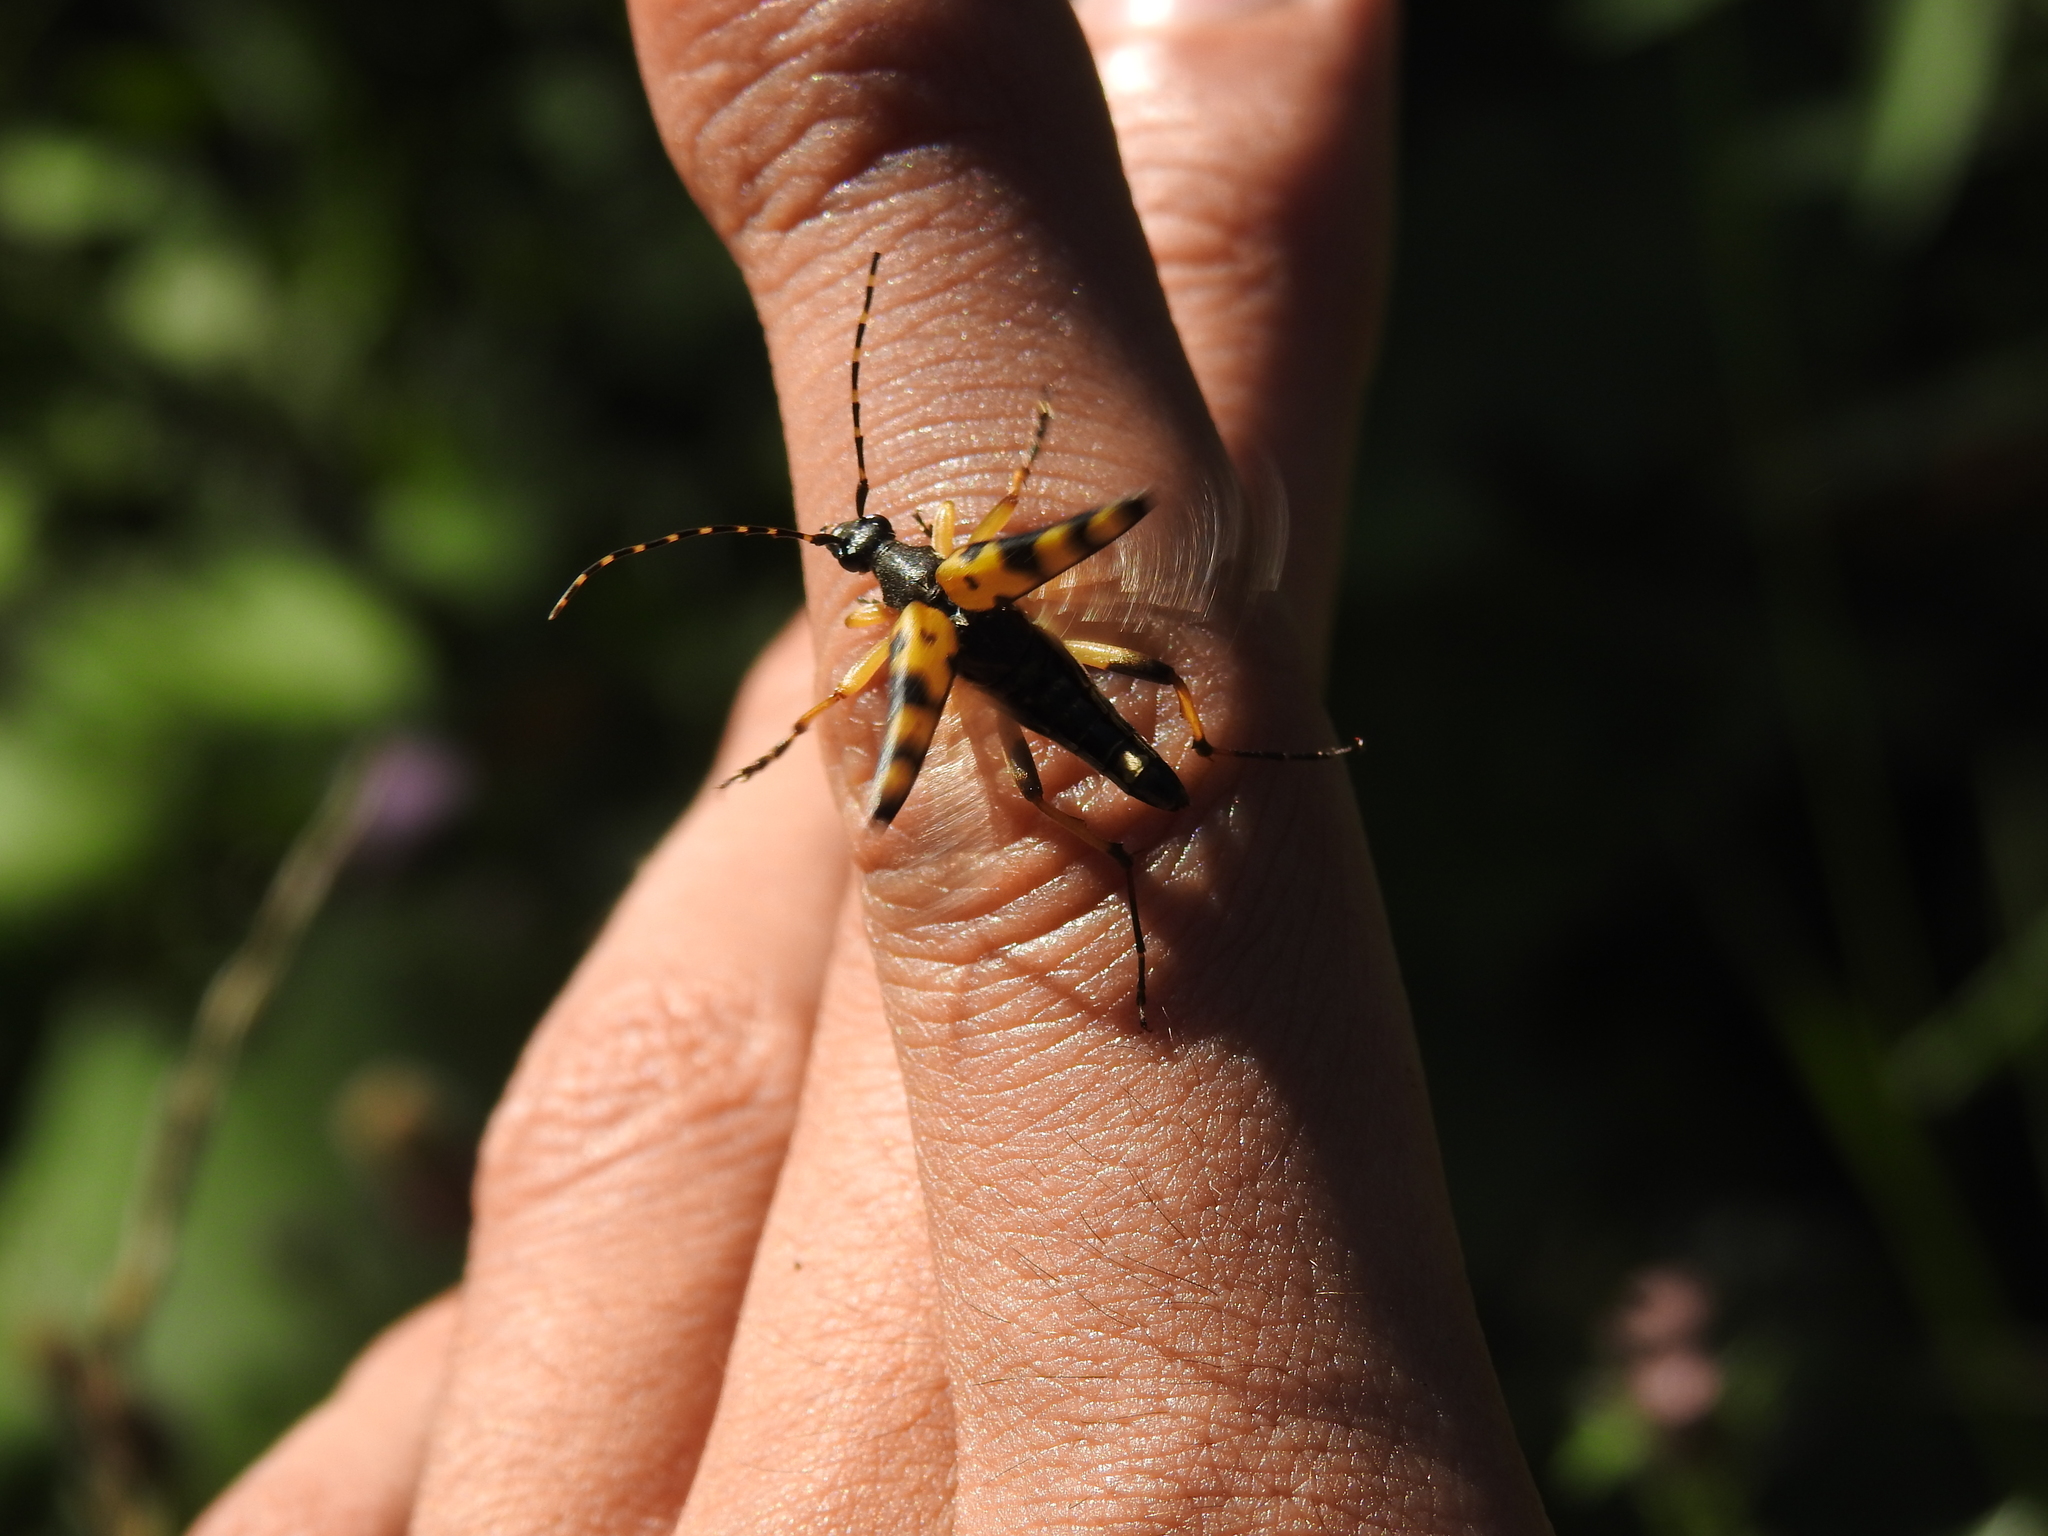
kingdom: Animalia
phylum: Arthropoda
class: Insecta
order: Coleoptera
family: Cerambycidae
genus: Rutpela
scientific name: Rutpela maculata
